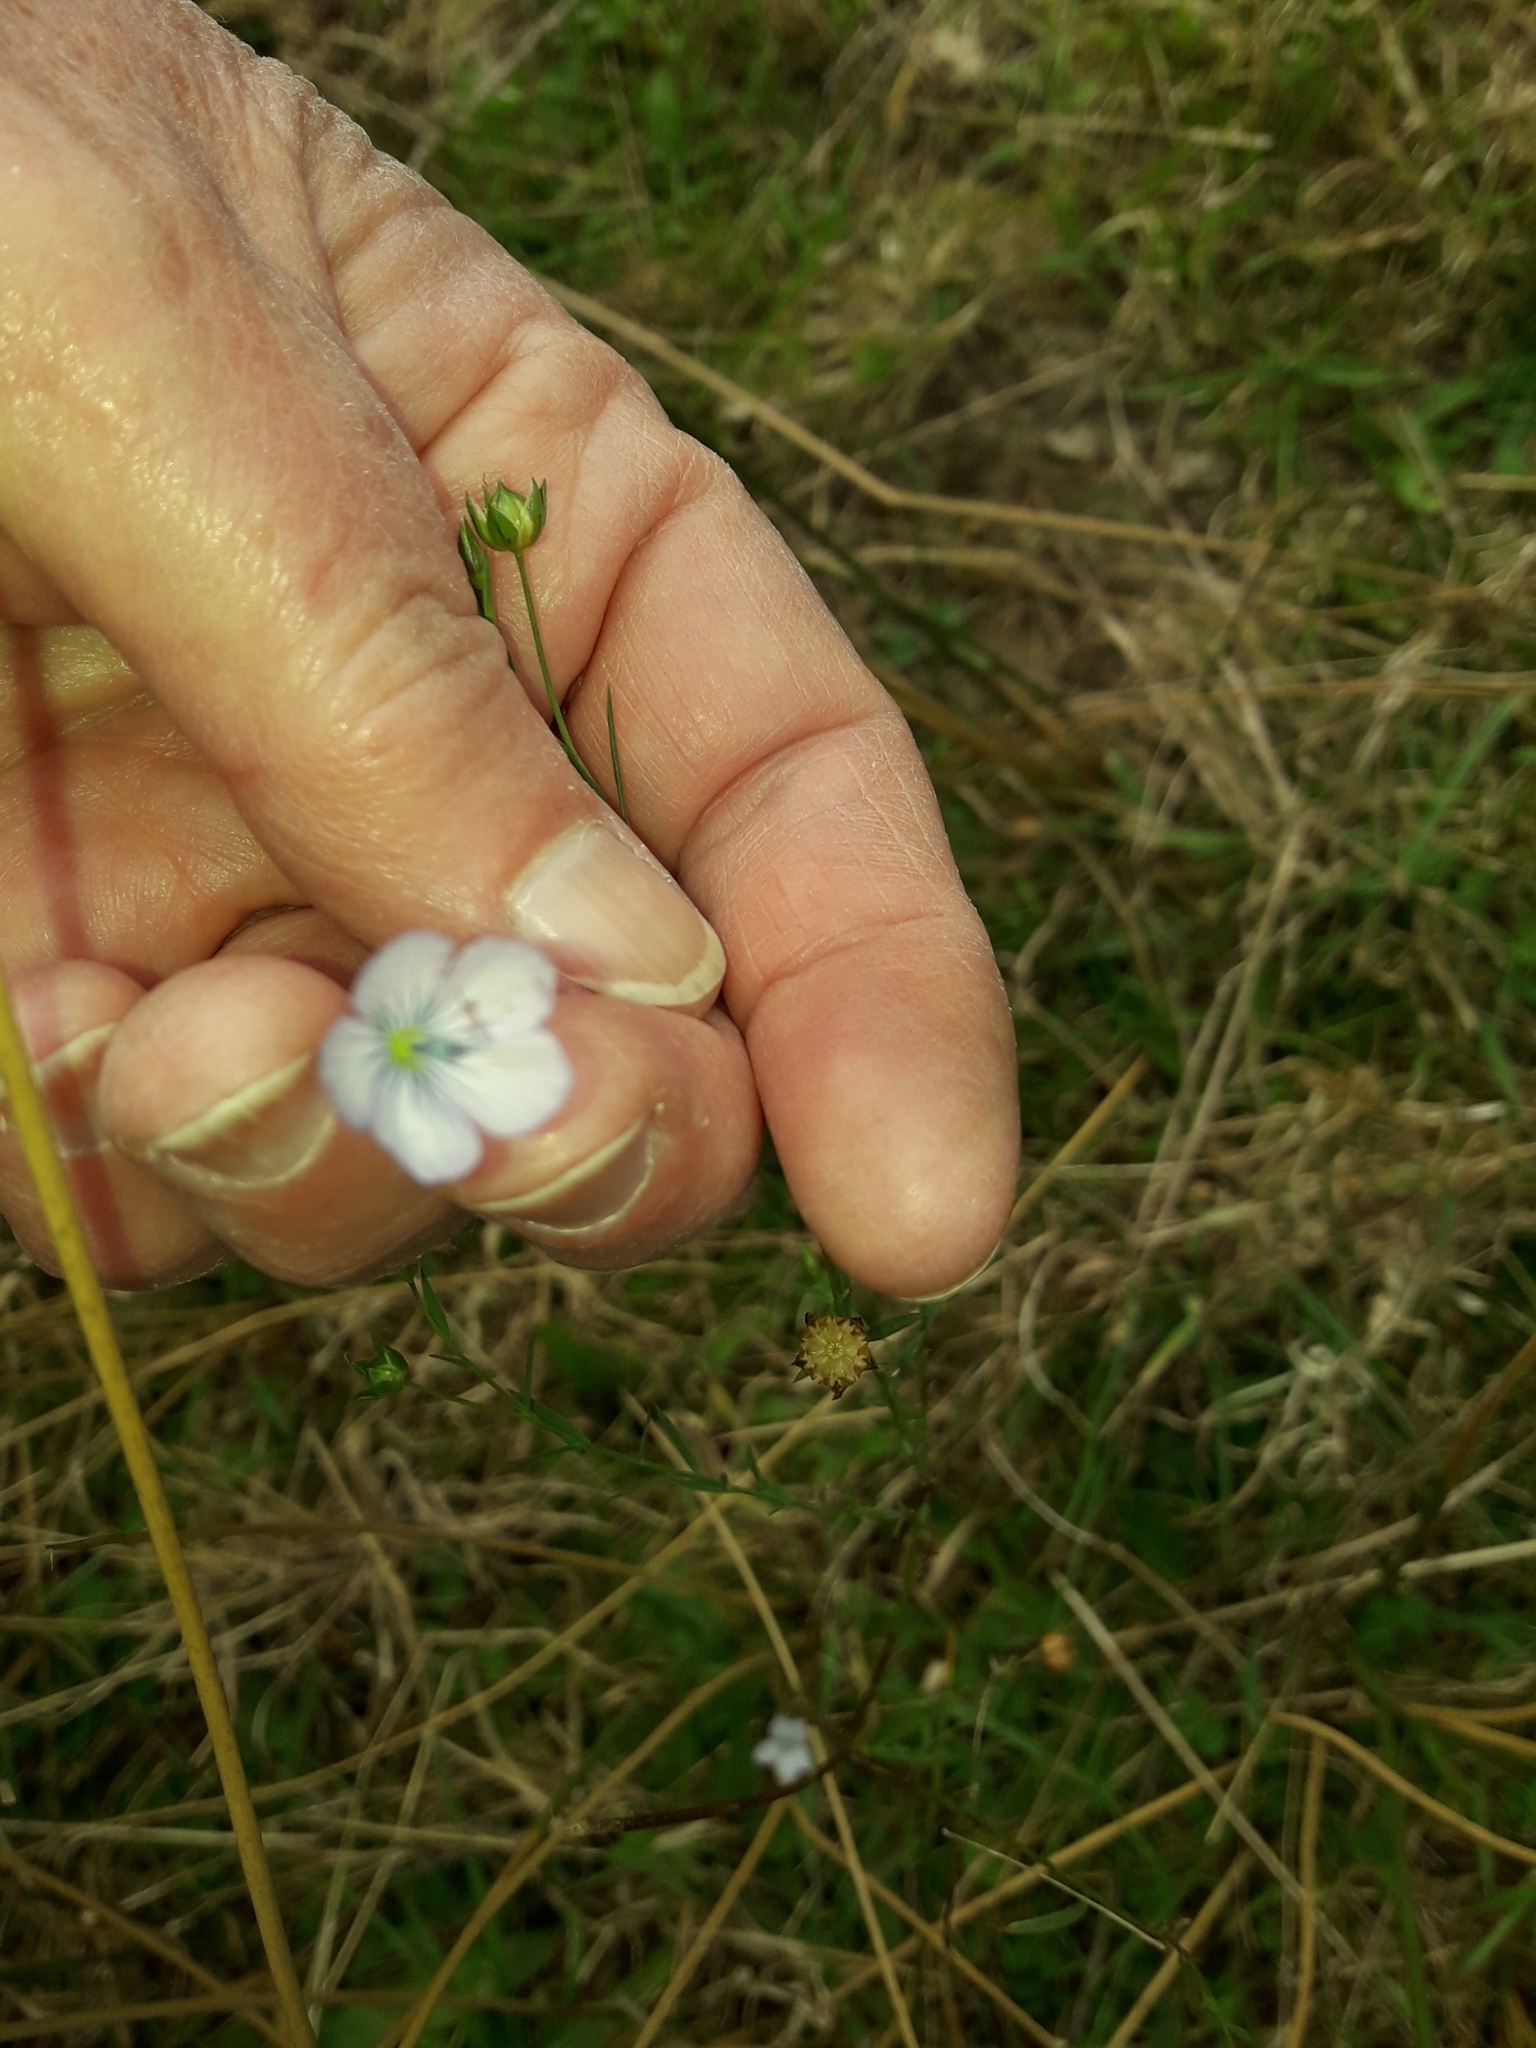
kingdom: Plantae
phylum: Tracheophyta
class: Magnoliopsida
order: Malpighiales
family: Linaceae
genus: Linum
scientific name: Linum bienne
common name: Pale flax
